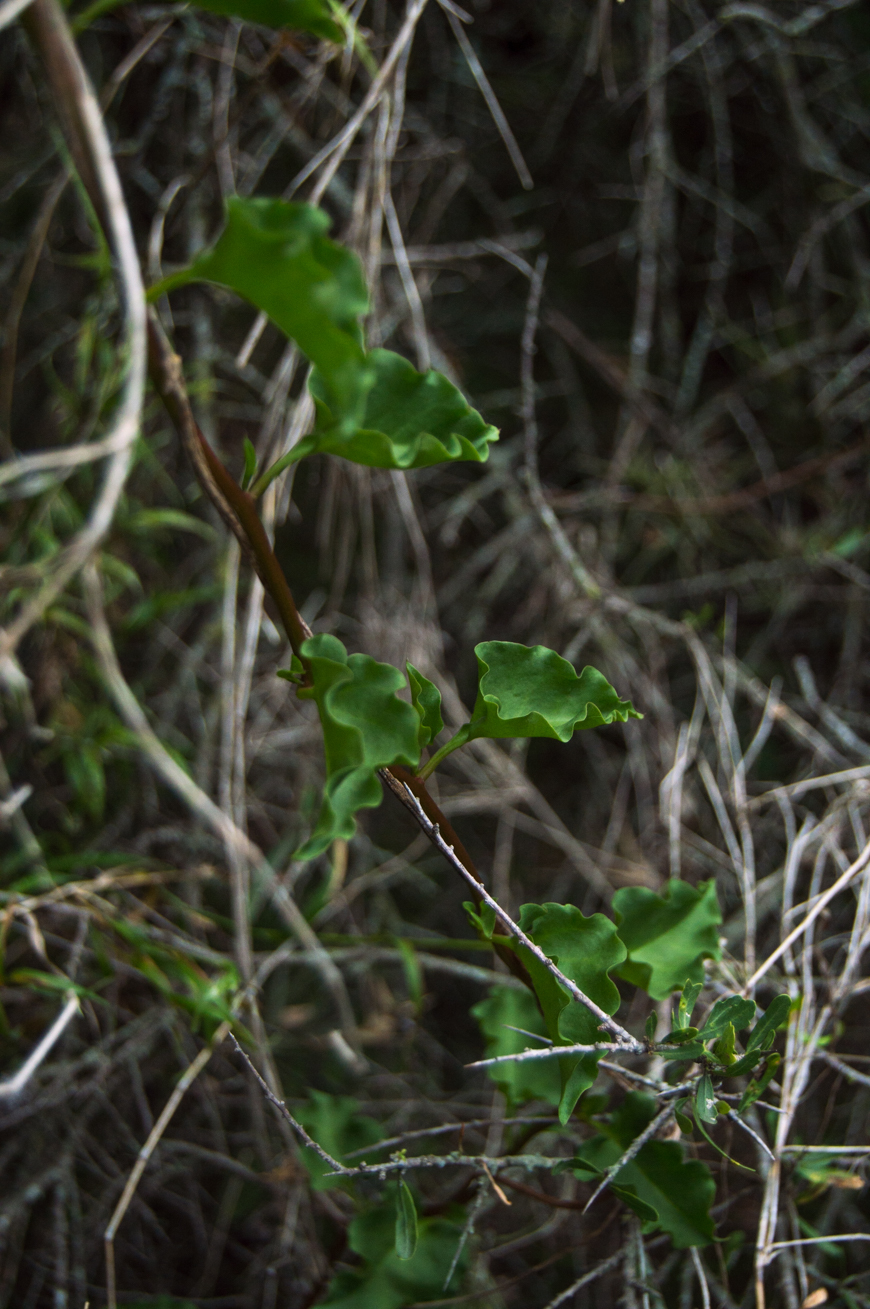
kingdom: Plantae
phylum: Tracheophyta
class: Magnoliopsida
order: Caryophyllales
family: Basellaceae
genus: Anredera
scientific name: Anredera cordifolia
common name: Heartleaf madeiravine
